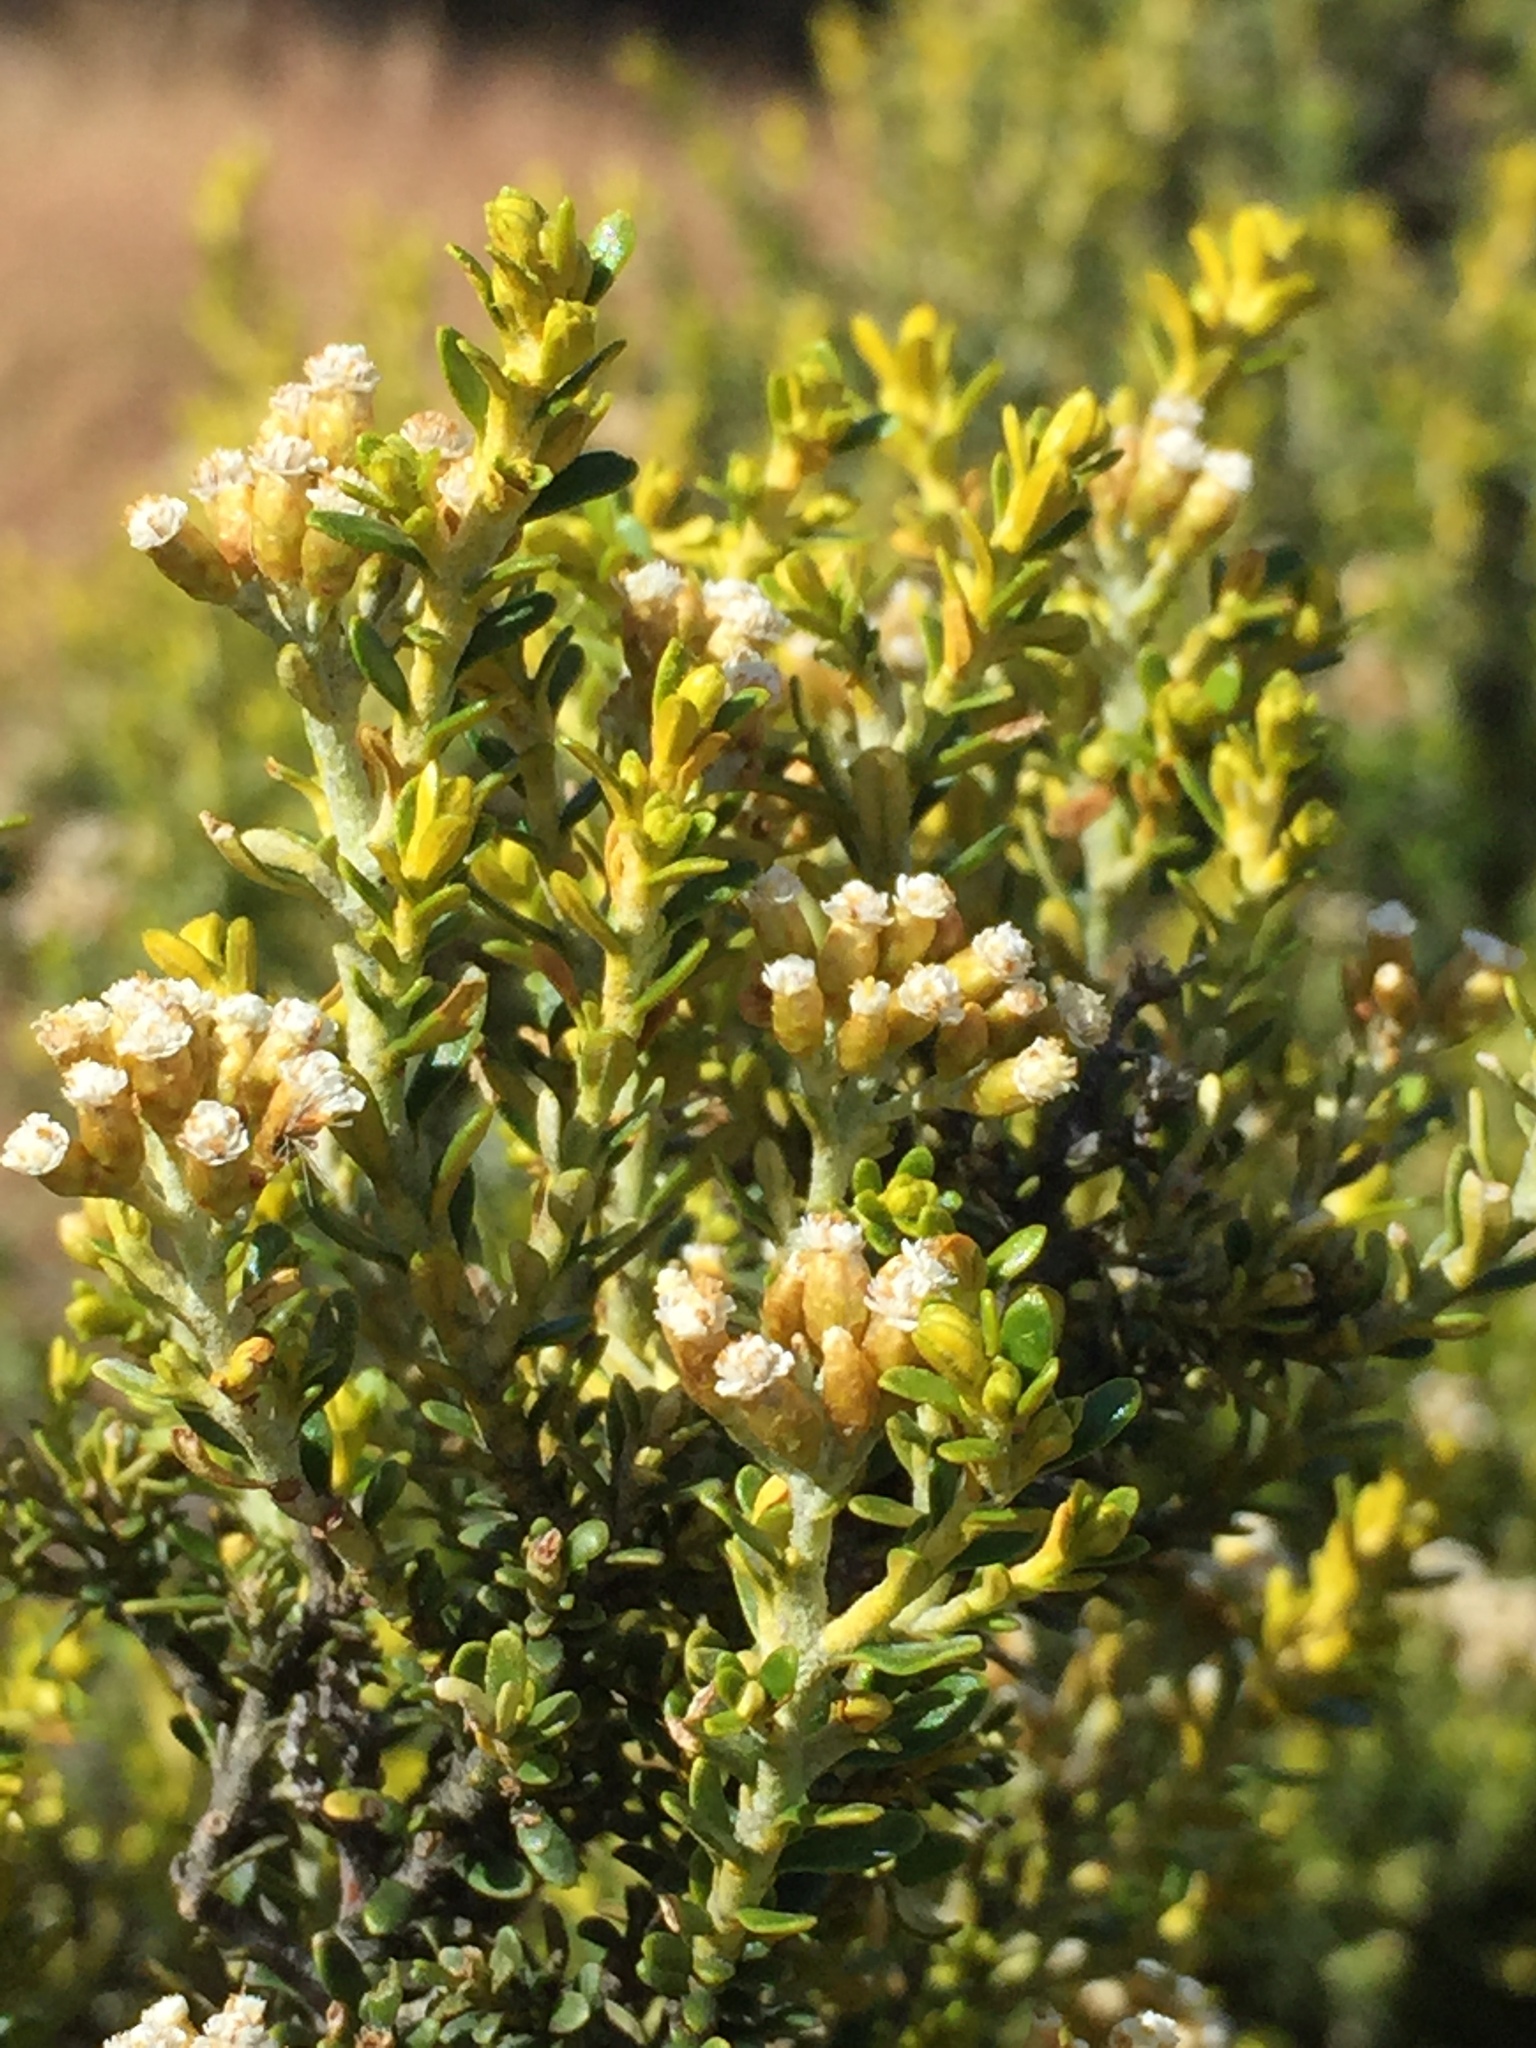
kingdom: Plantae
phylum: Tracheophyta
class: Magnoliopsida
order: Asterales
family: Asteraceae
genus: Ozothamnus
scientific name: Ozothamnus leptophyllus
